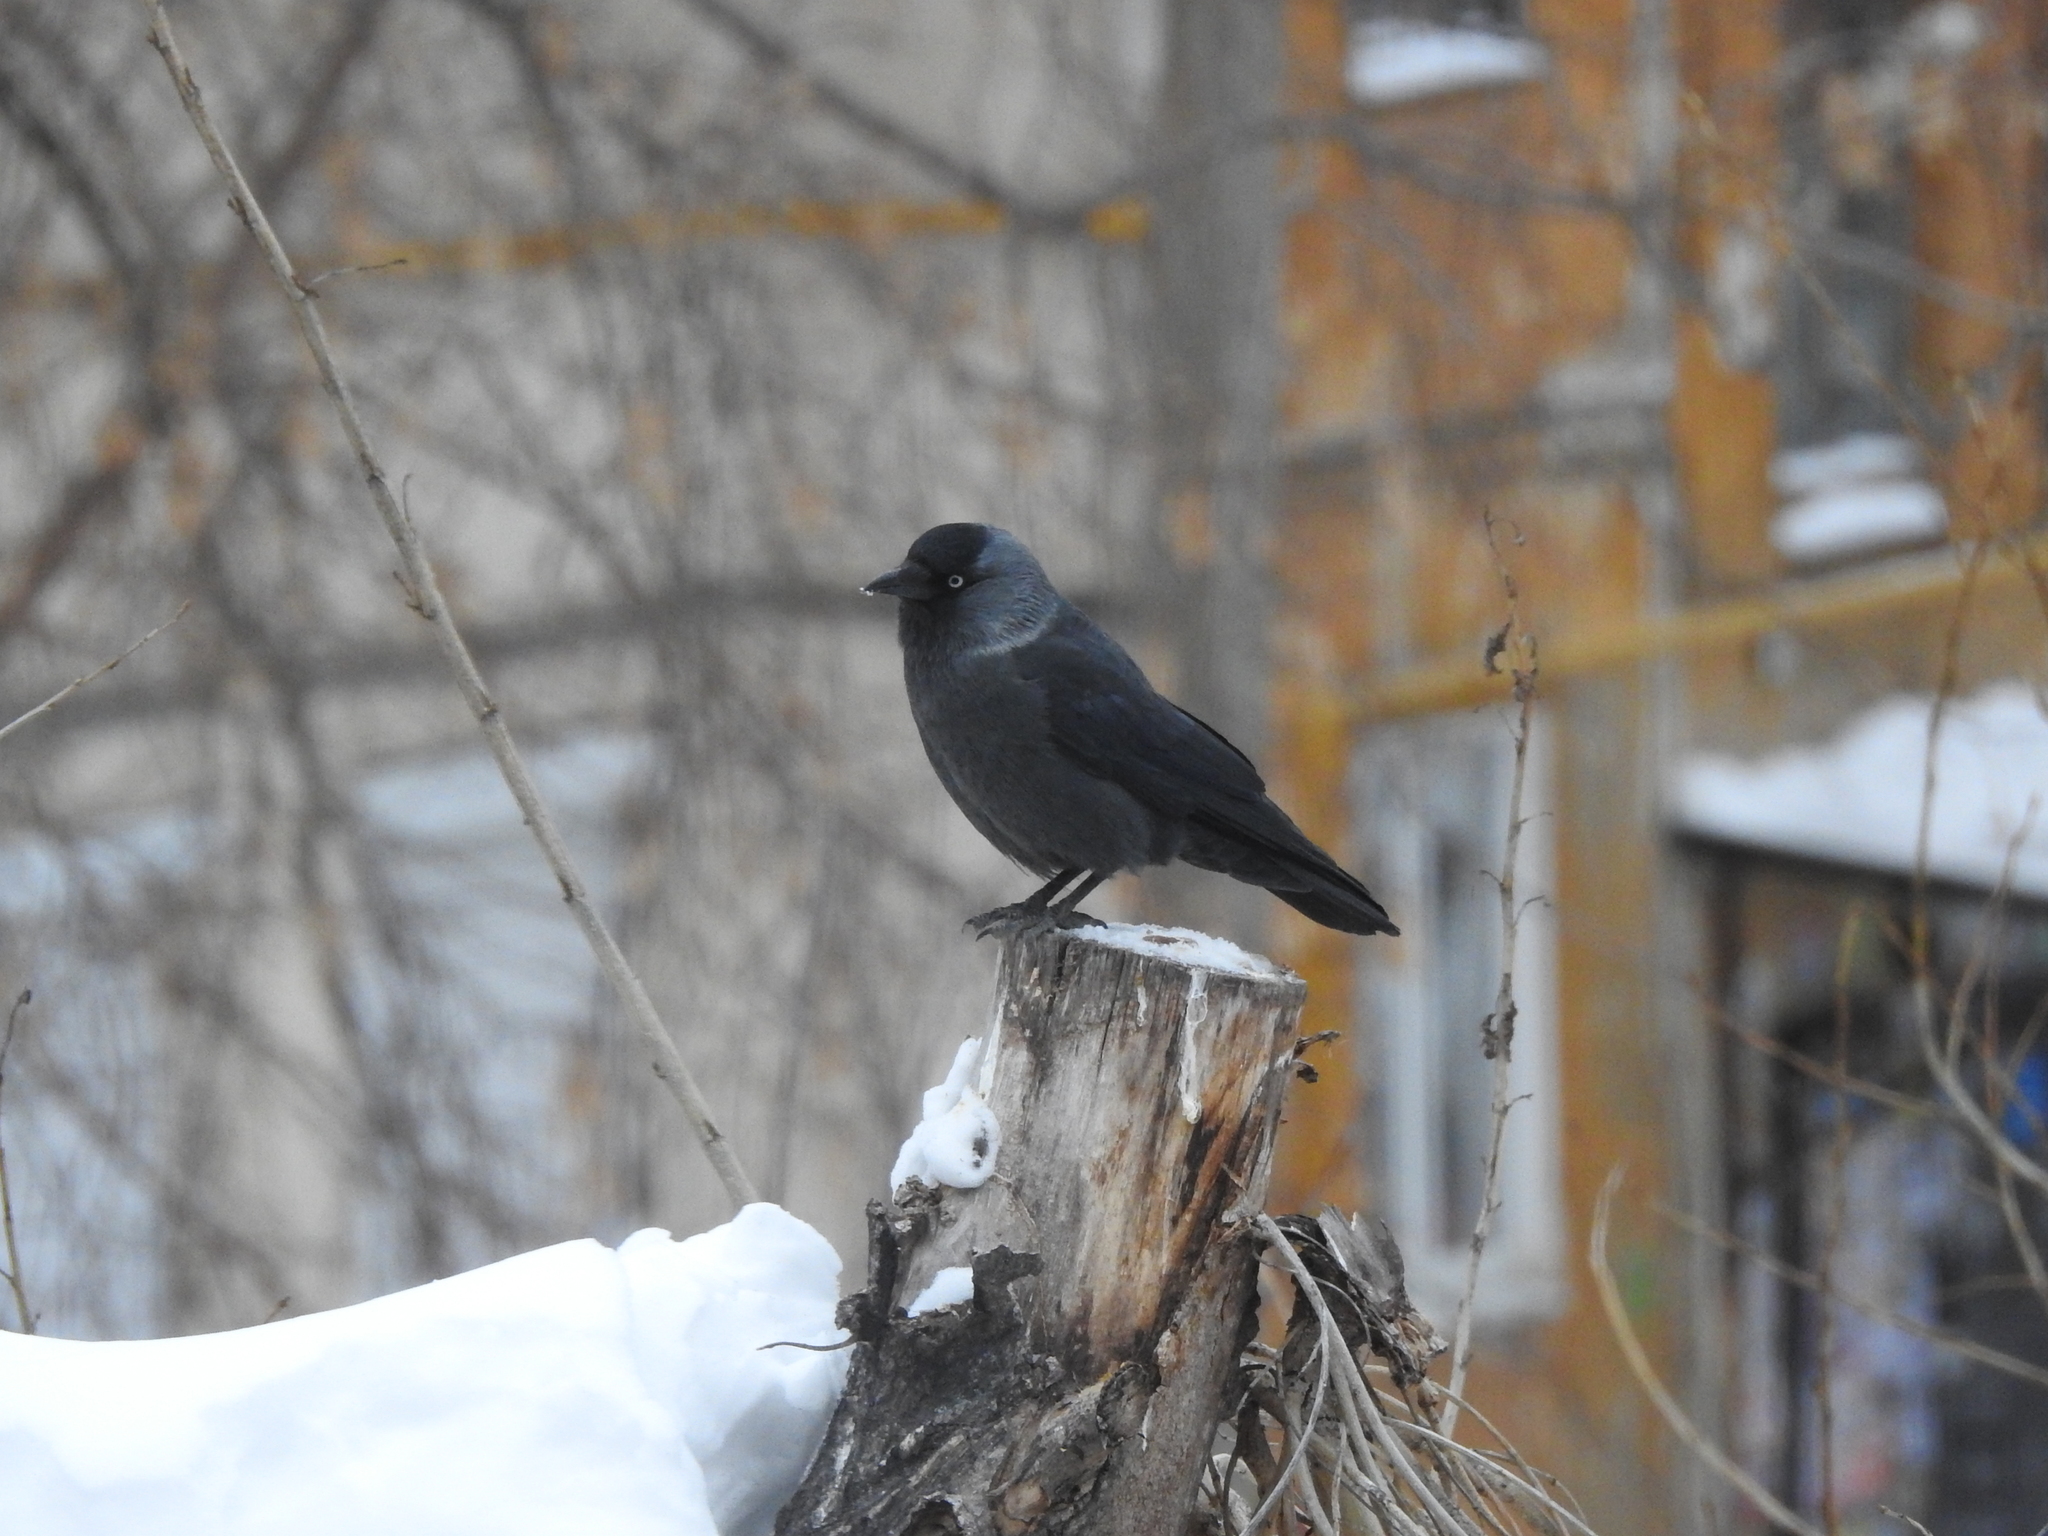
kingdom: Animalia
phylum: Chordata
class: Aves
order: Passeriformes
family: Corvidae
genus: Coloeus
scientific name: Coloeus monedula
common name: Western jackdaw
